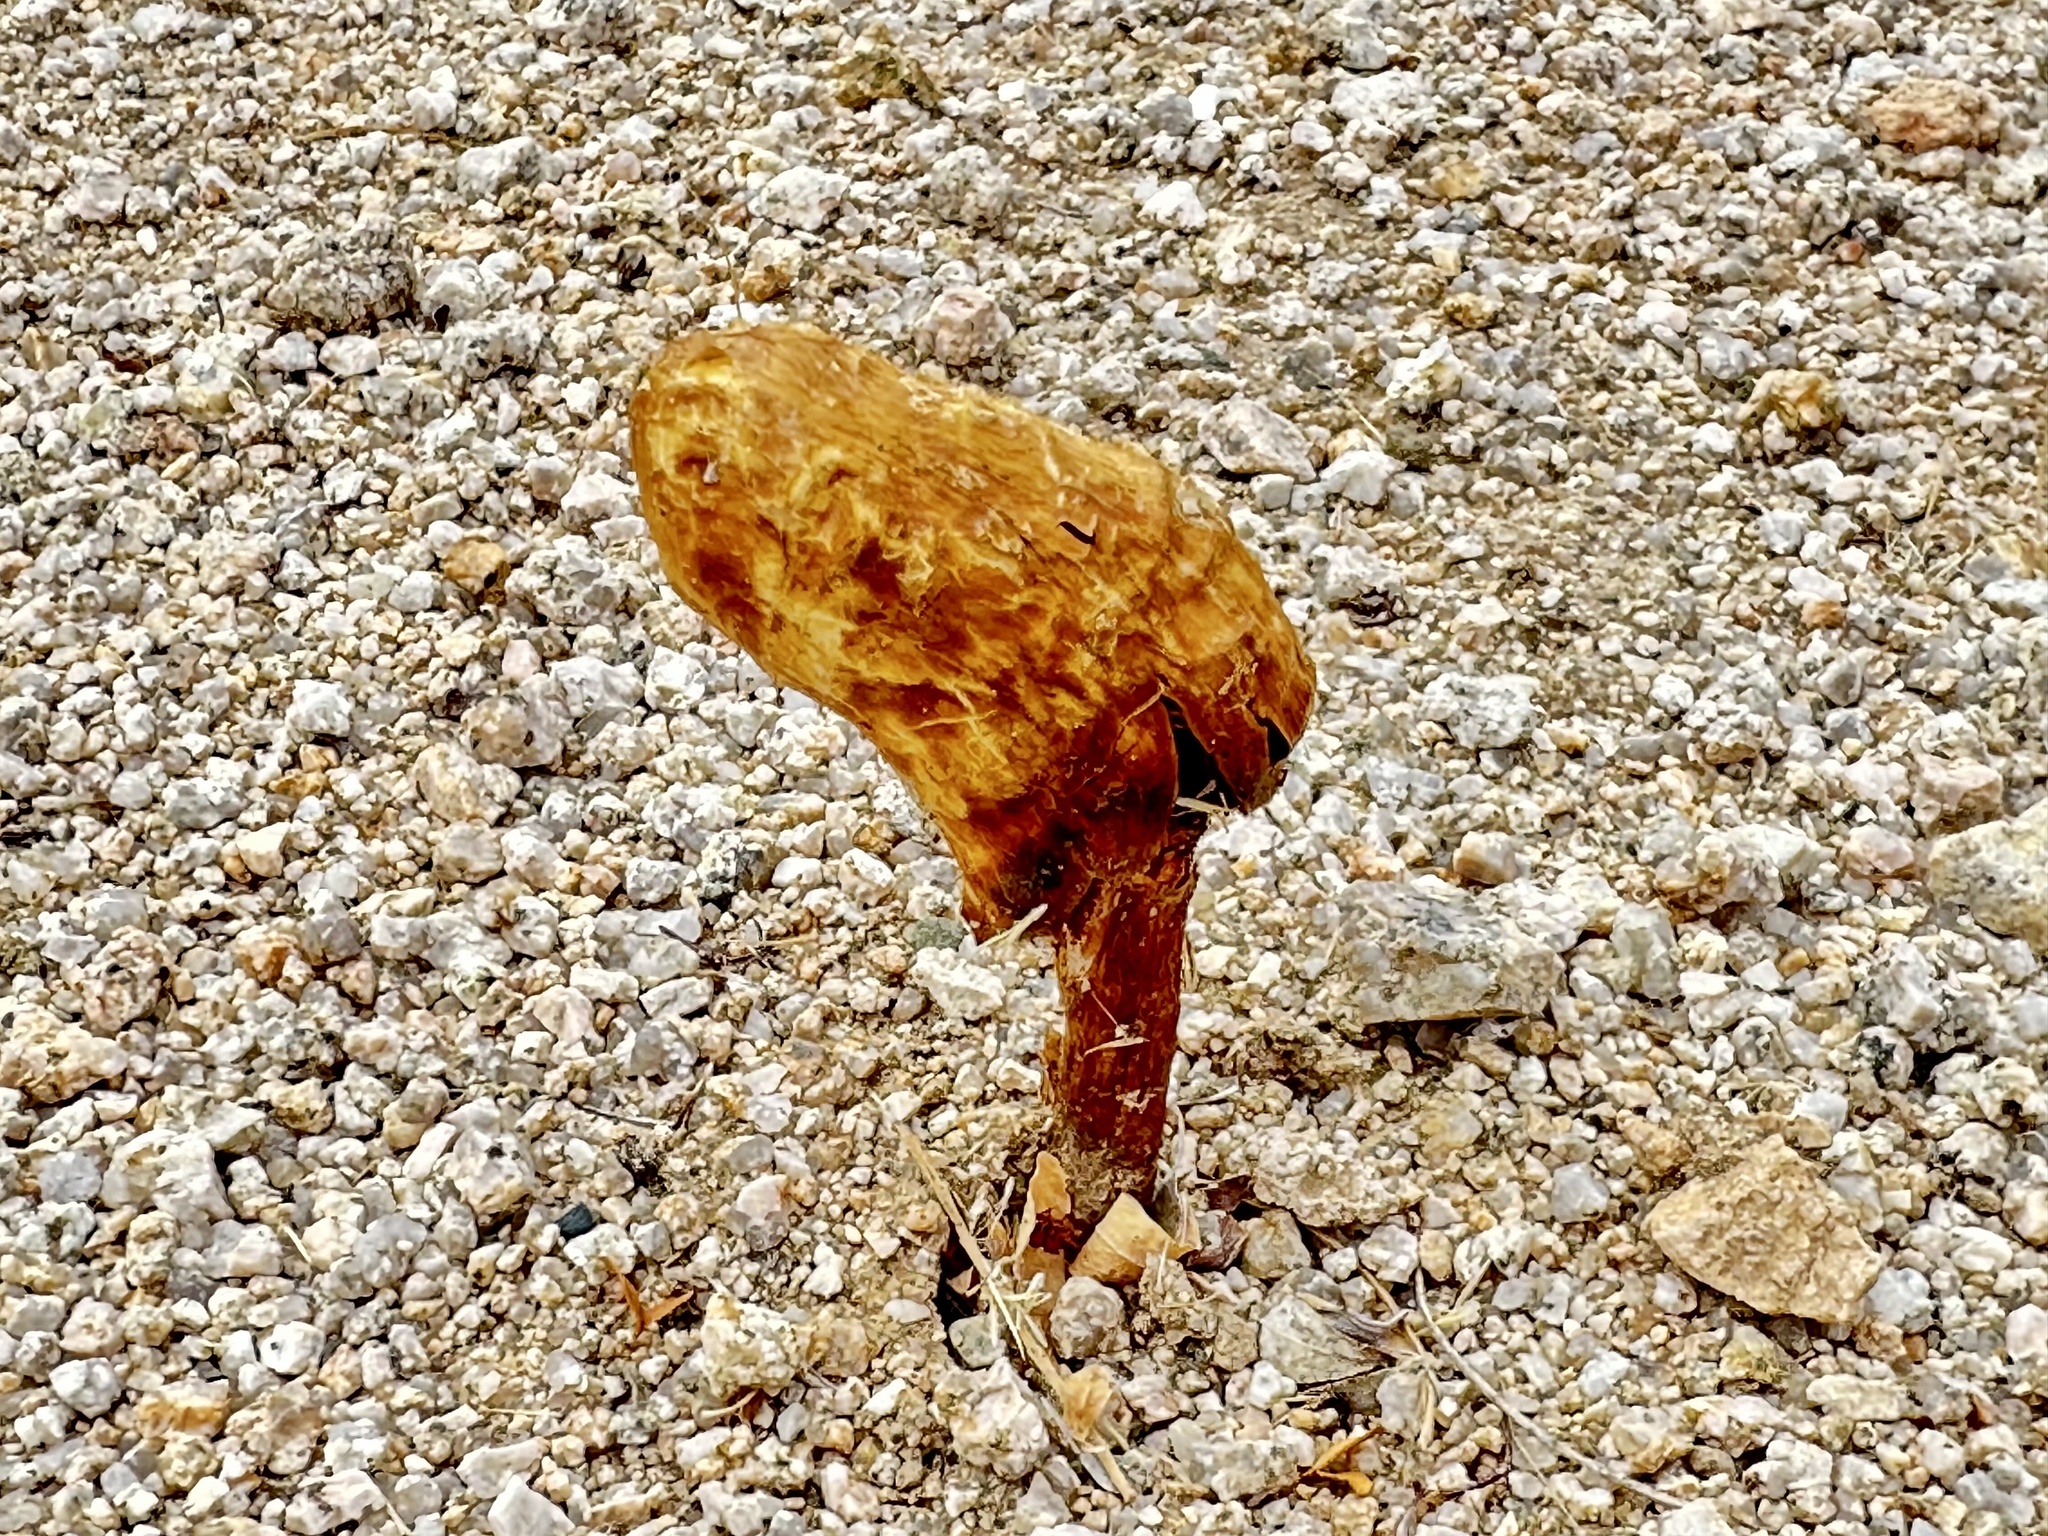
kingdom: Fungi
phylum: Basidiomycota
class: Agaricomycetes
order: Agaricales
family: Agaricaceae
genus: Podaxis
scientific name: Podaxis pistillaris
